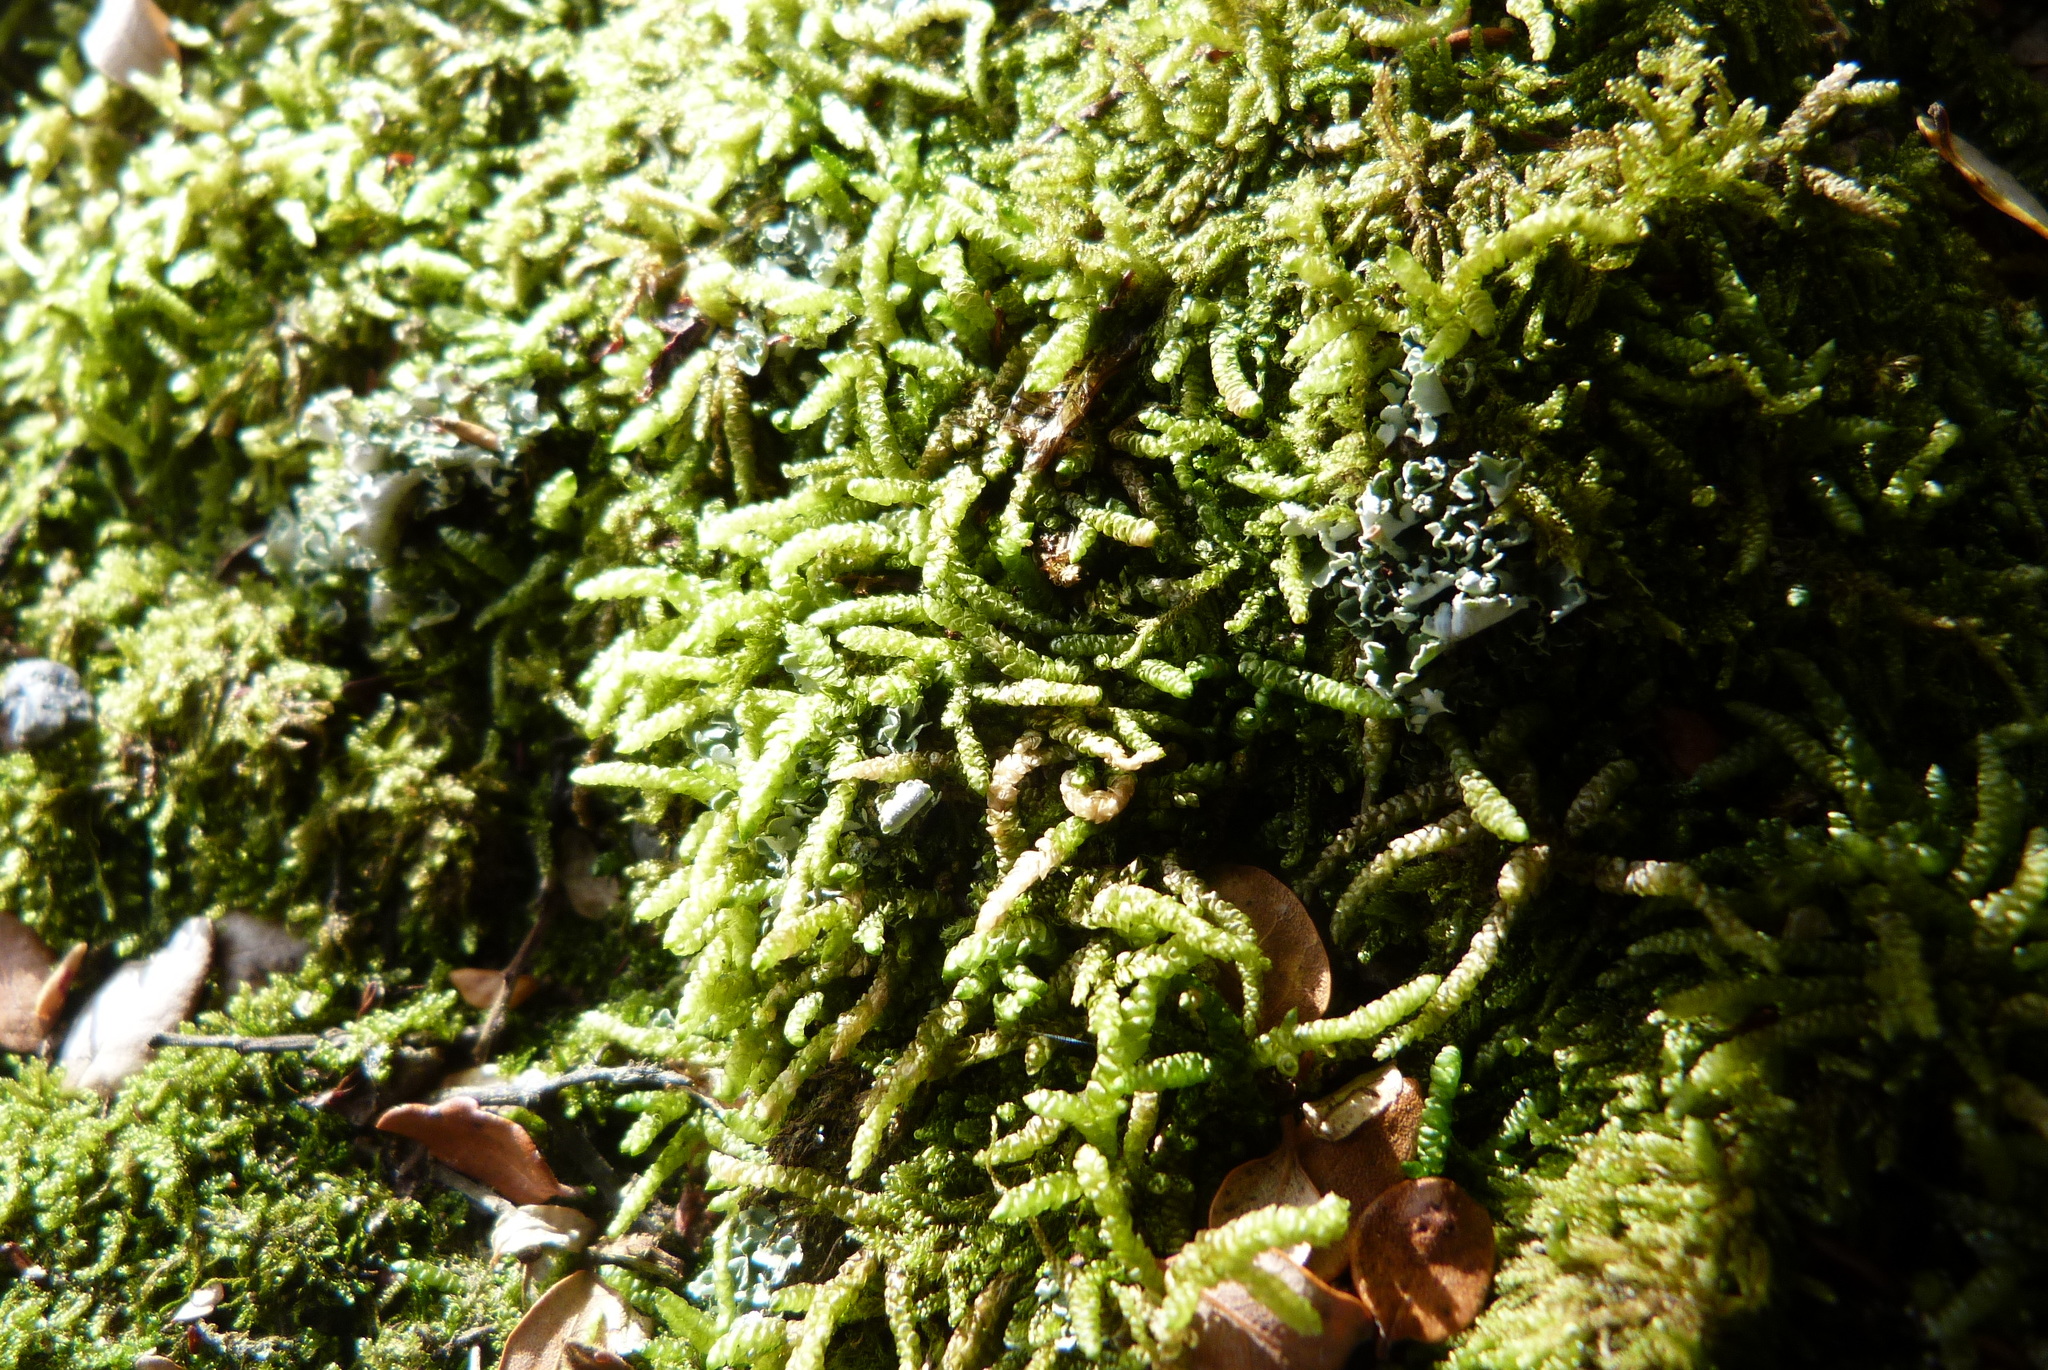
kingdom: Plantae
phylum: Bryophyta
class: Bryopsida
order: Hypnales
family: Lembophyllaceae
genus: Lembophyllum
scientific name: Lembophyllum divulsum
